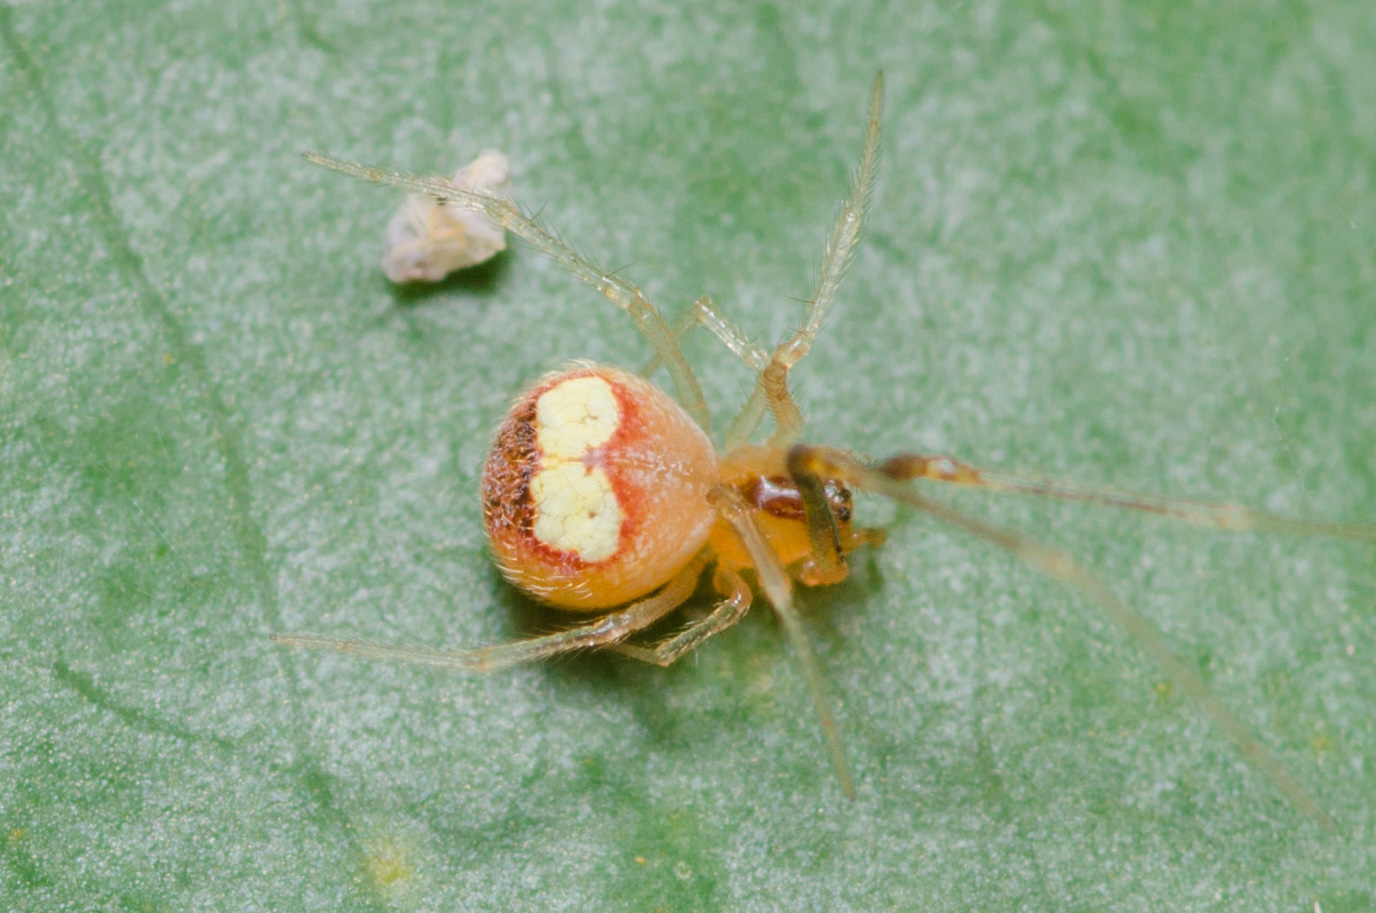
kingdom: Animalia
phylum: Arthropoda
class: Arachnida
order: Araneae
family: Theridiidae
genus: Theridion
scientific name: Theridion flavonotatum
